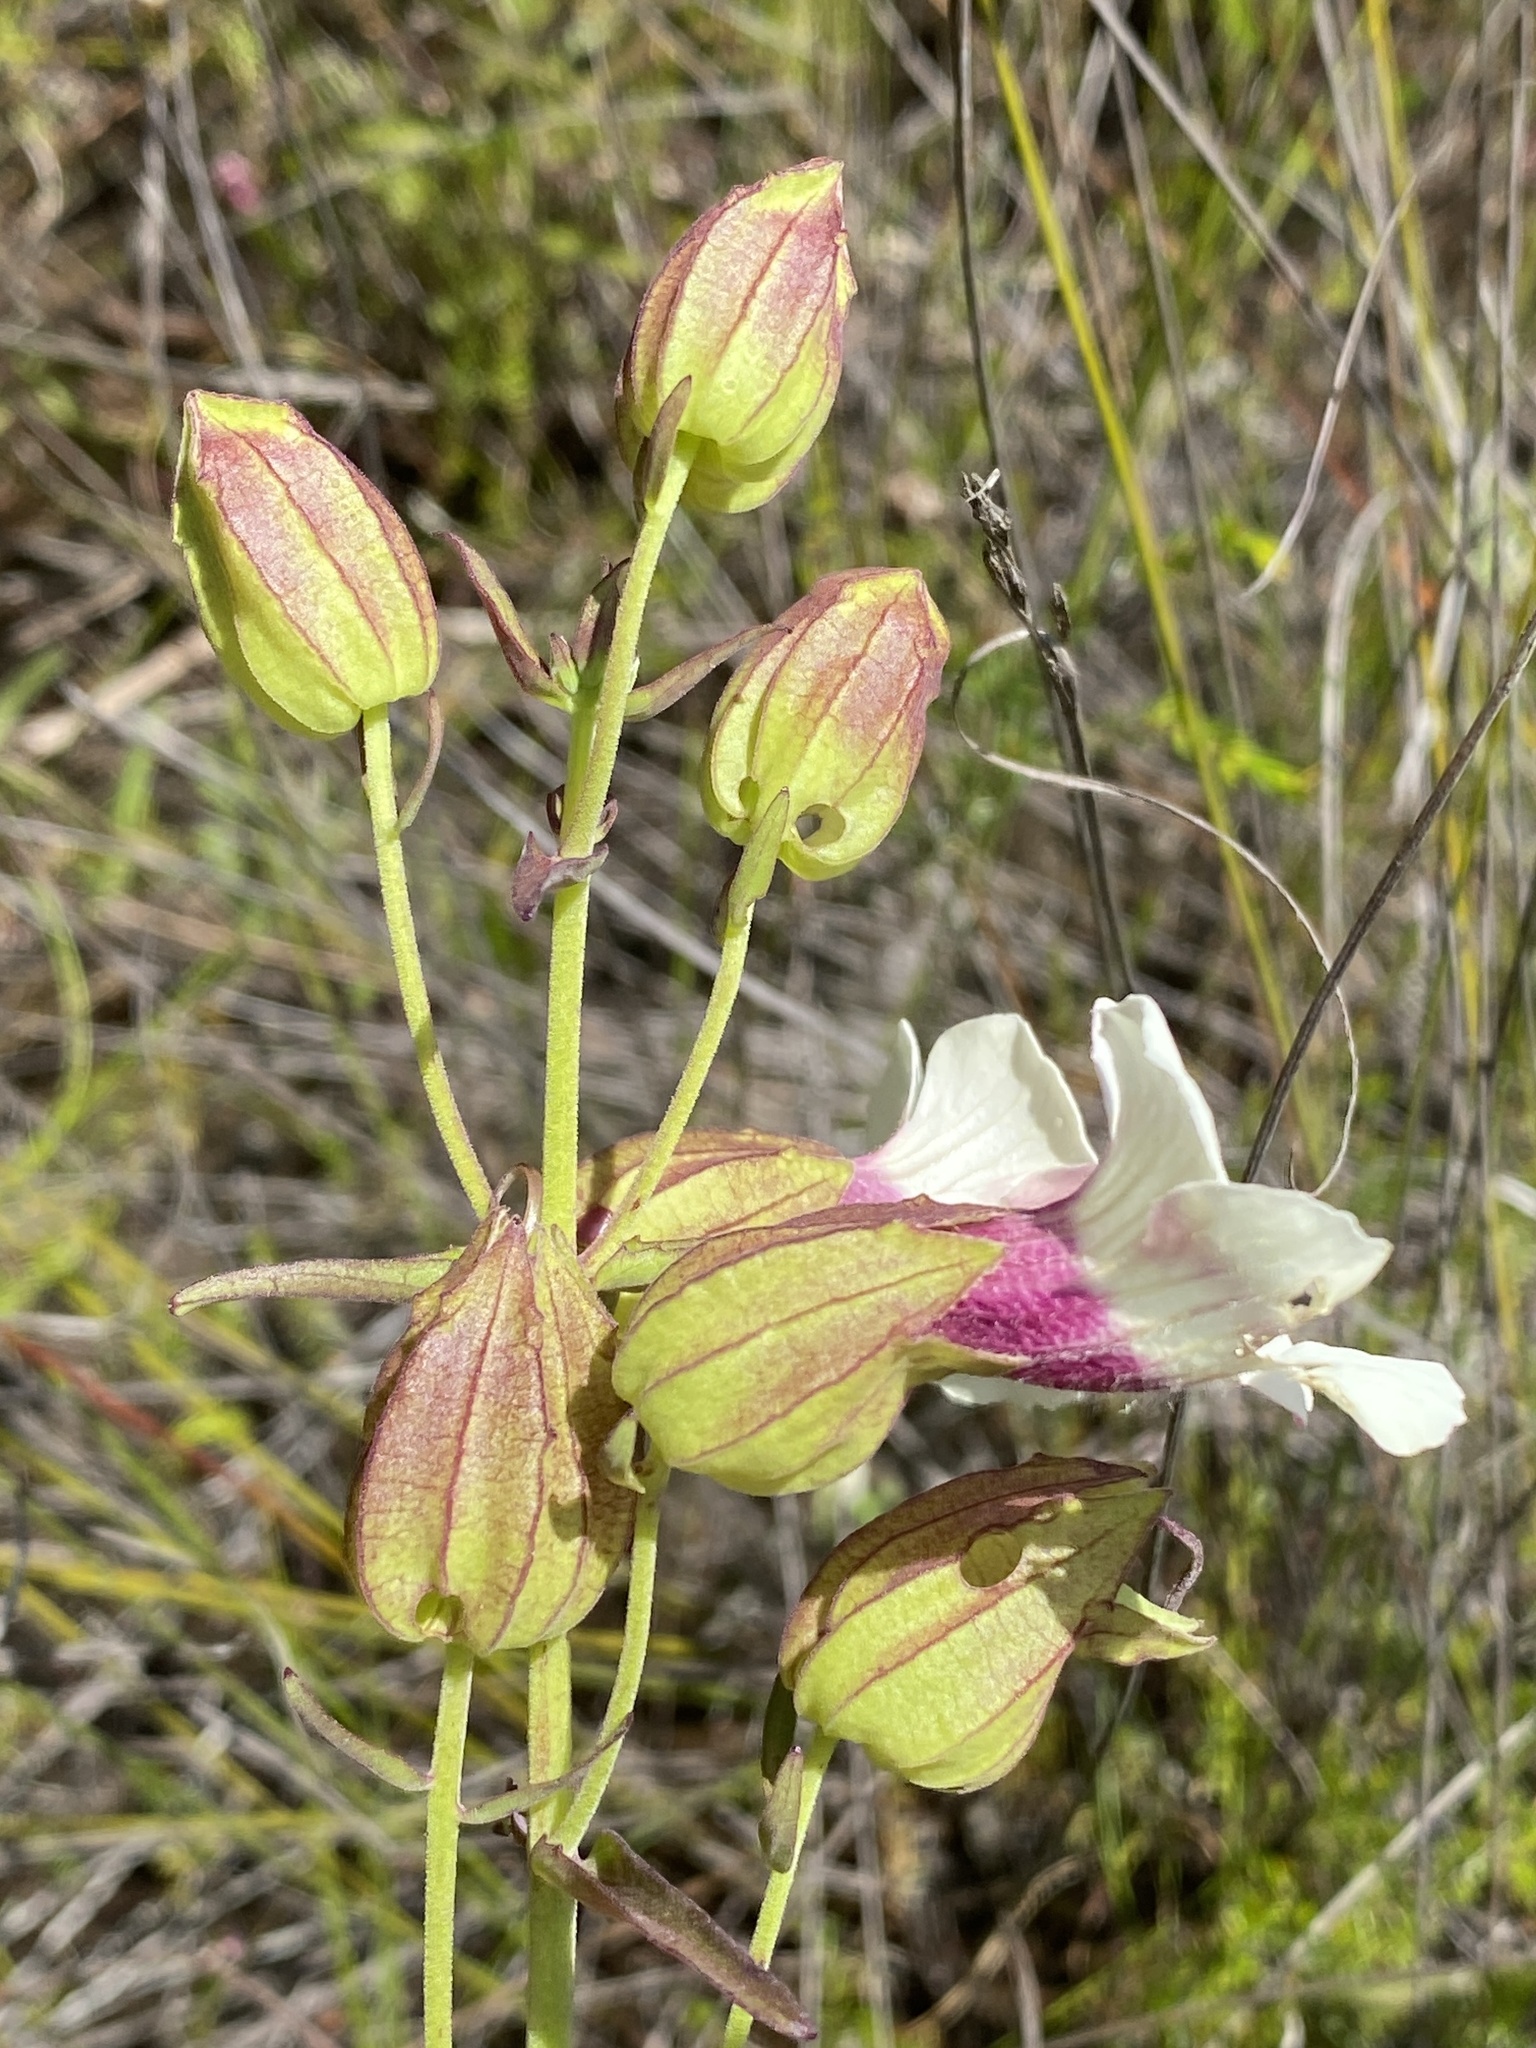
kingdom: Plantae
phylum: Tracheophyta
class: Magnoliopsida
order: Lamiales
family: Orobanchaceae
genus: Melasma
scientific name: Melasma scabrum
